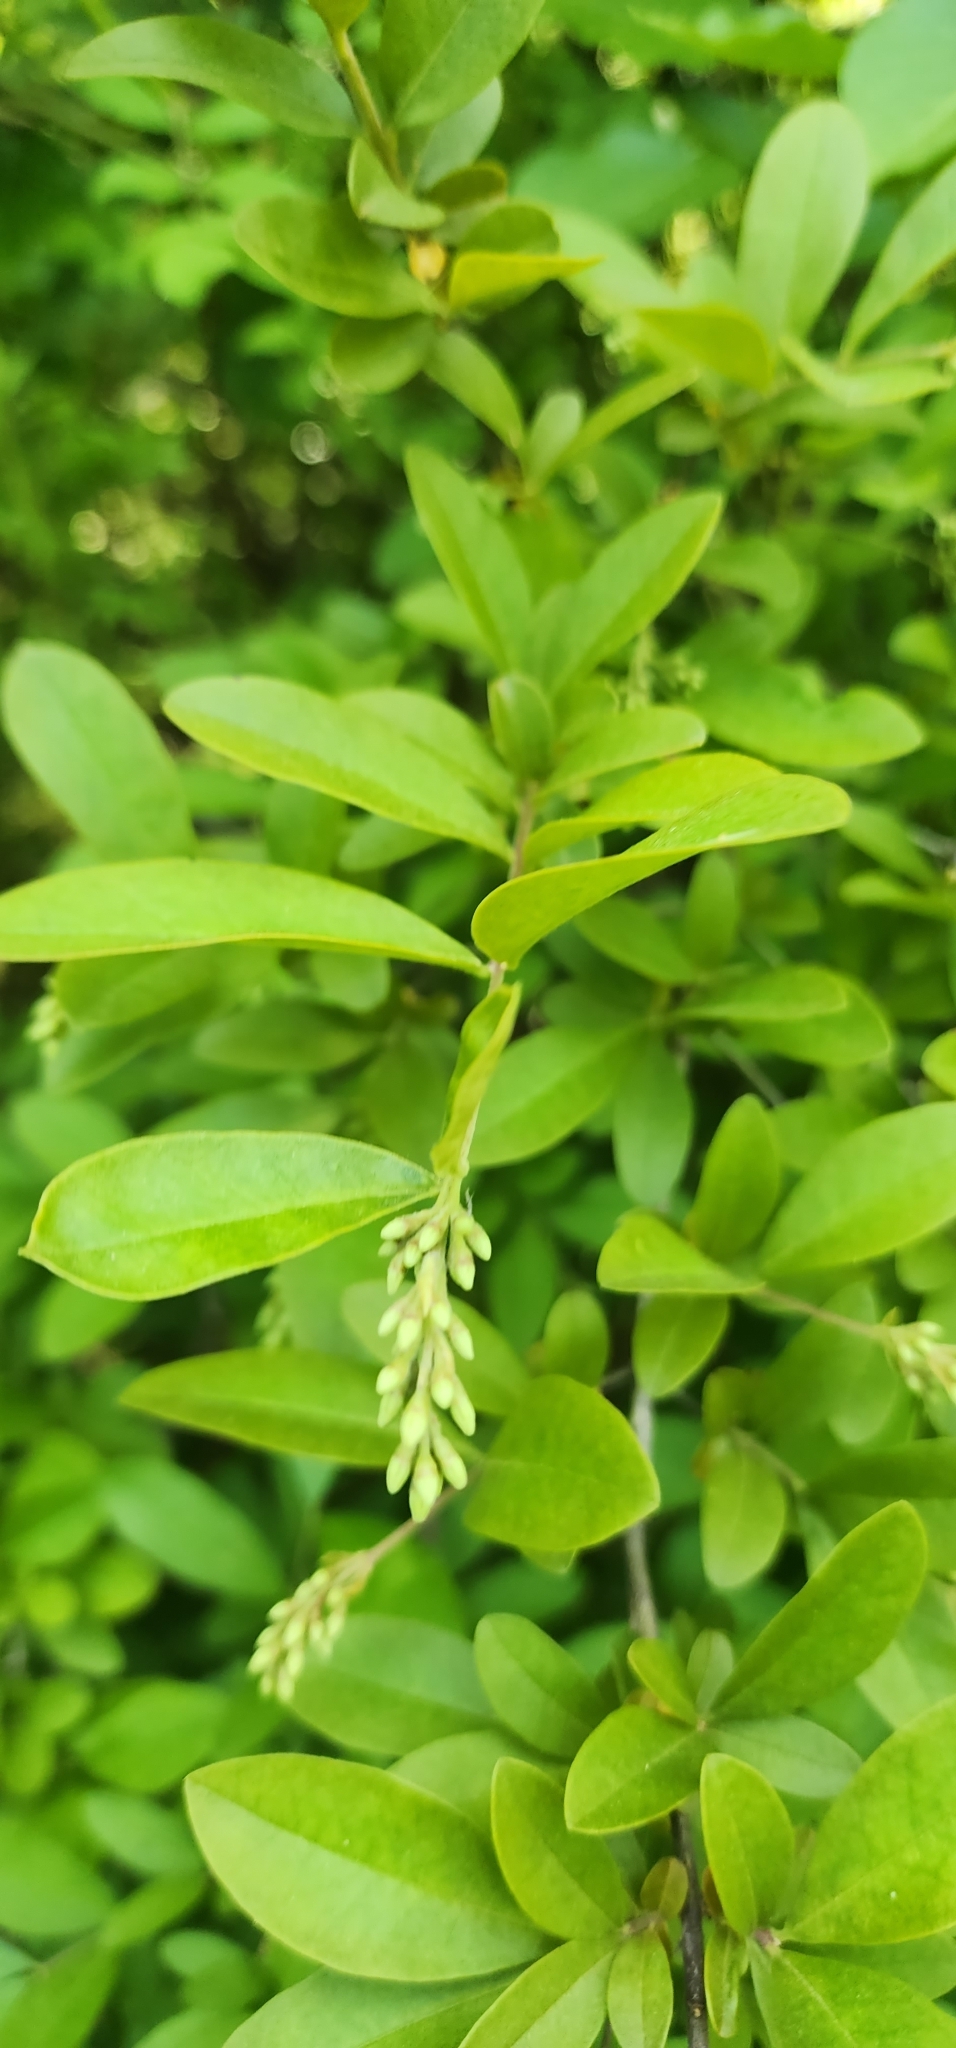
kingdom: Plantae
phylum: Tracheophyta
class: Magnoliopsida
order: Lamiales
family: Oleaceae
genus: Ligustrum
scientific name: Ligustrum obtusifolium
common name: Border privet
